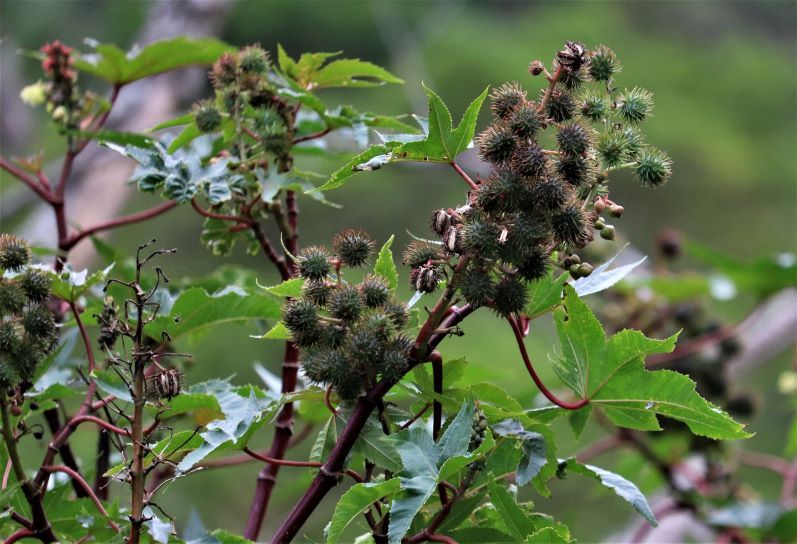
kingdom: Plantae
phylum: Tracheophyta
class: Magnoliopsida
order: Malpighiales
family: Euphorbiaceae
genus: Ricinus
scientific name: Ricinus communis
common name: Castor-oil-plant
